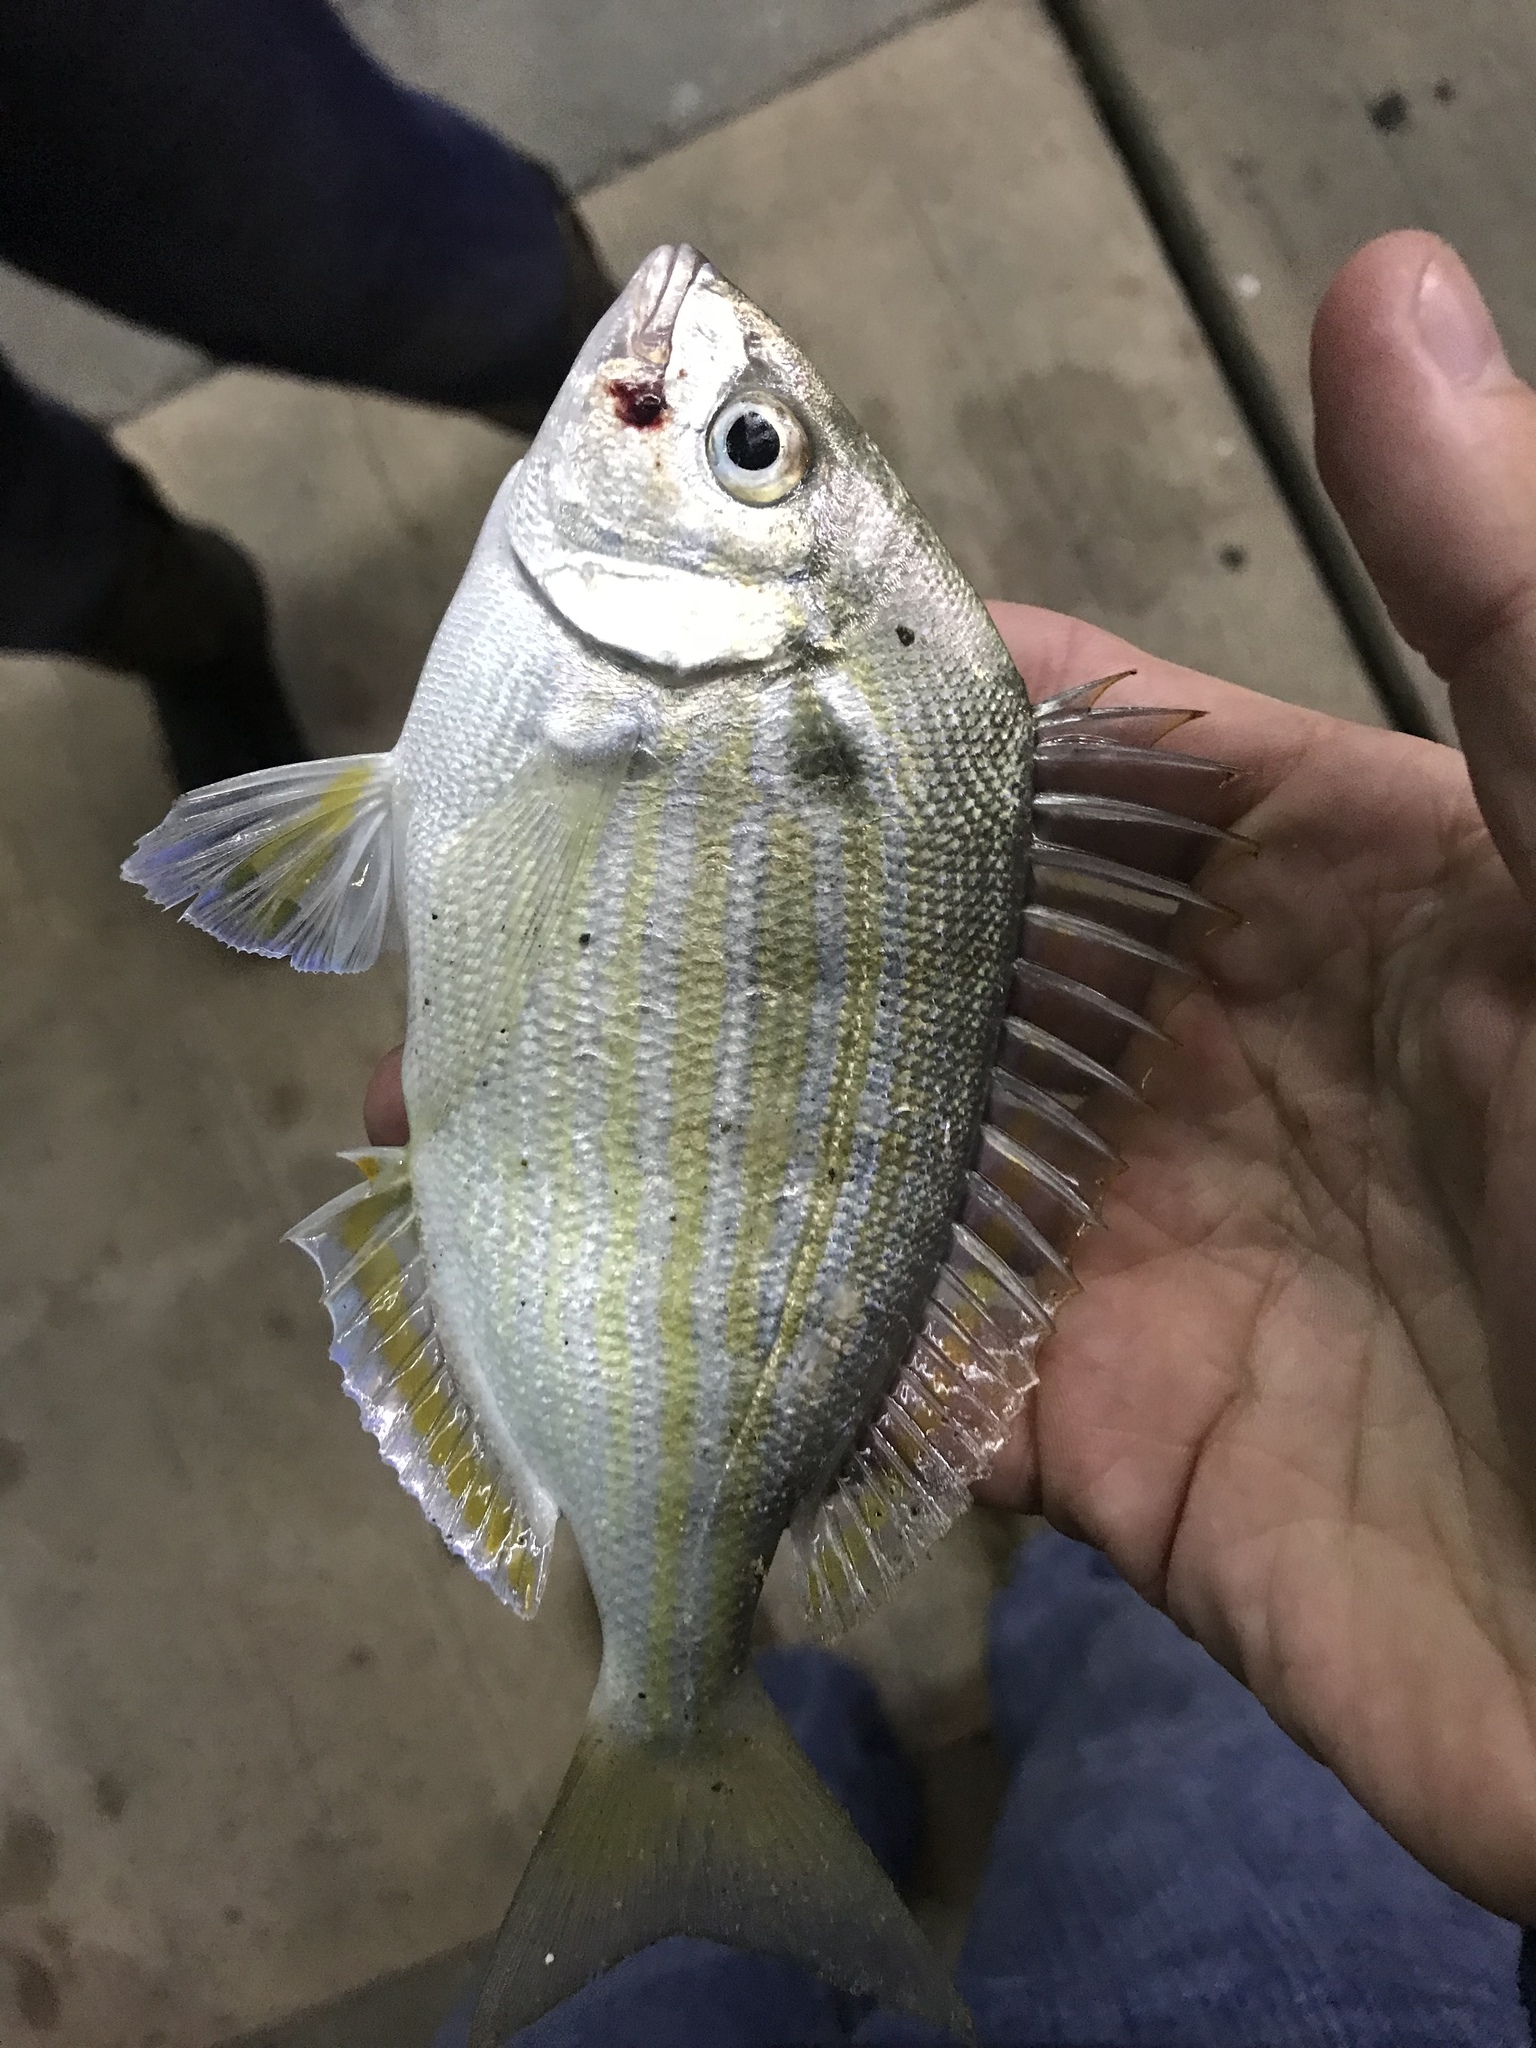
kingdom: Animalia
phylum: Chordata
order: Perciformes
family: Sparidae
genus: Lagodon
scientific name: Lagodon rhomboides
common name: Pinfish
